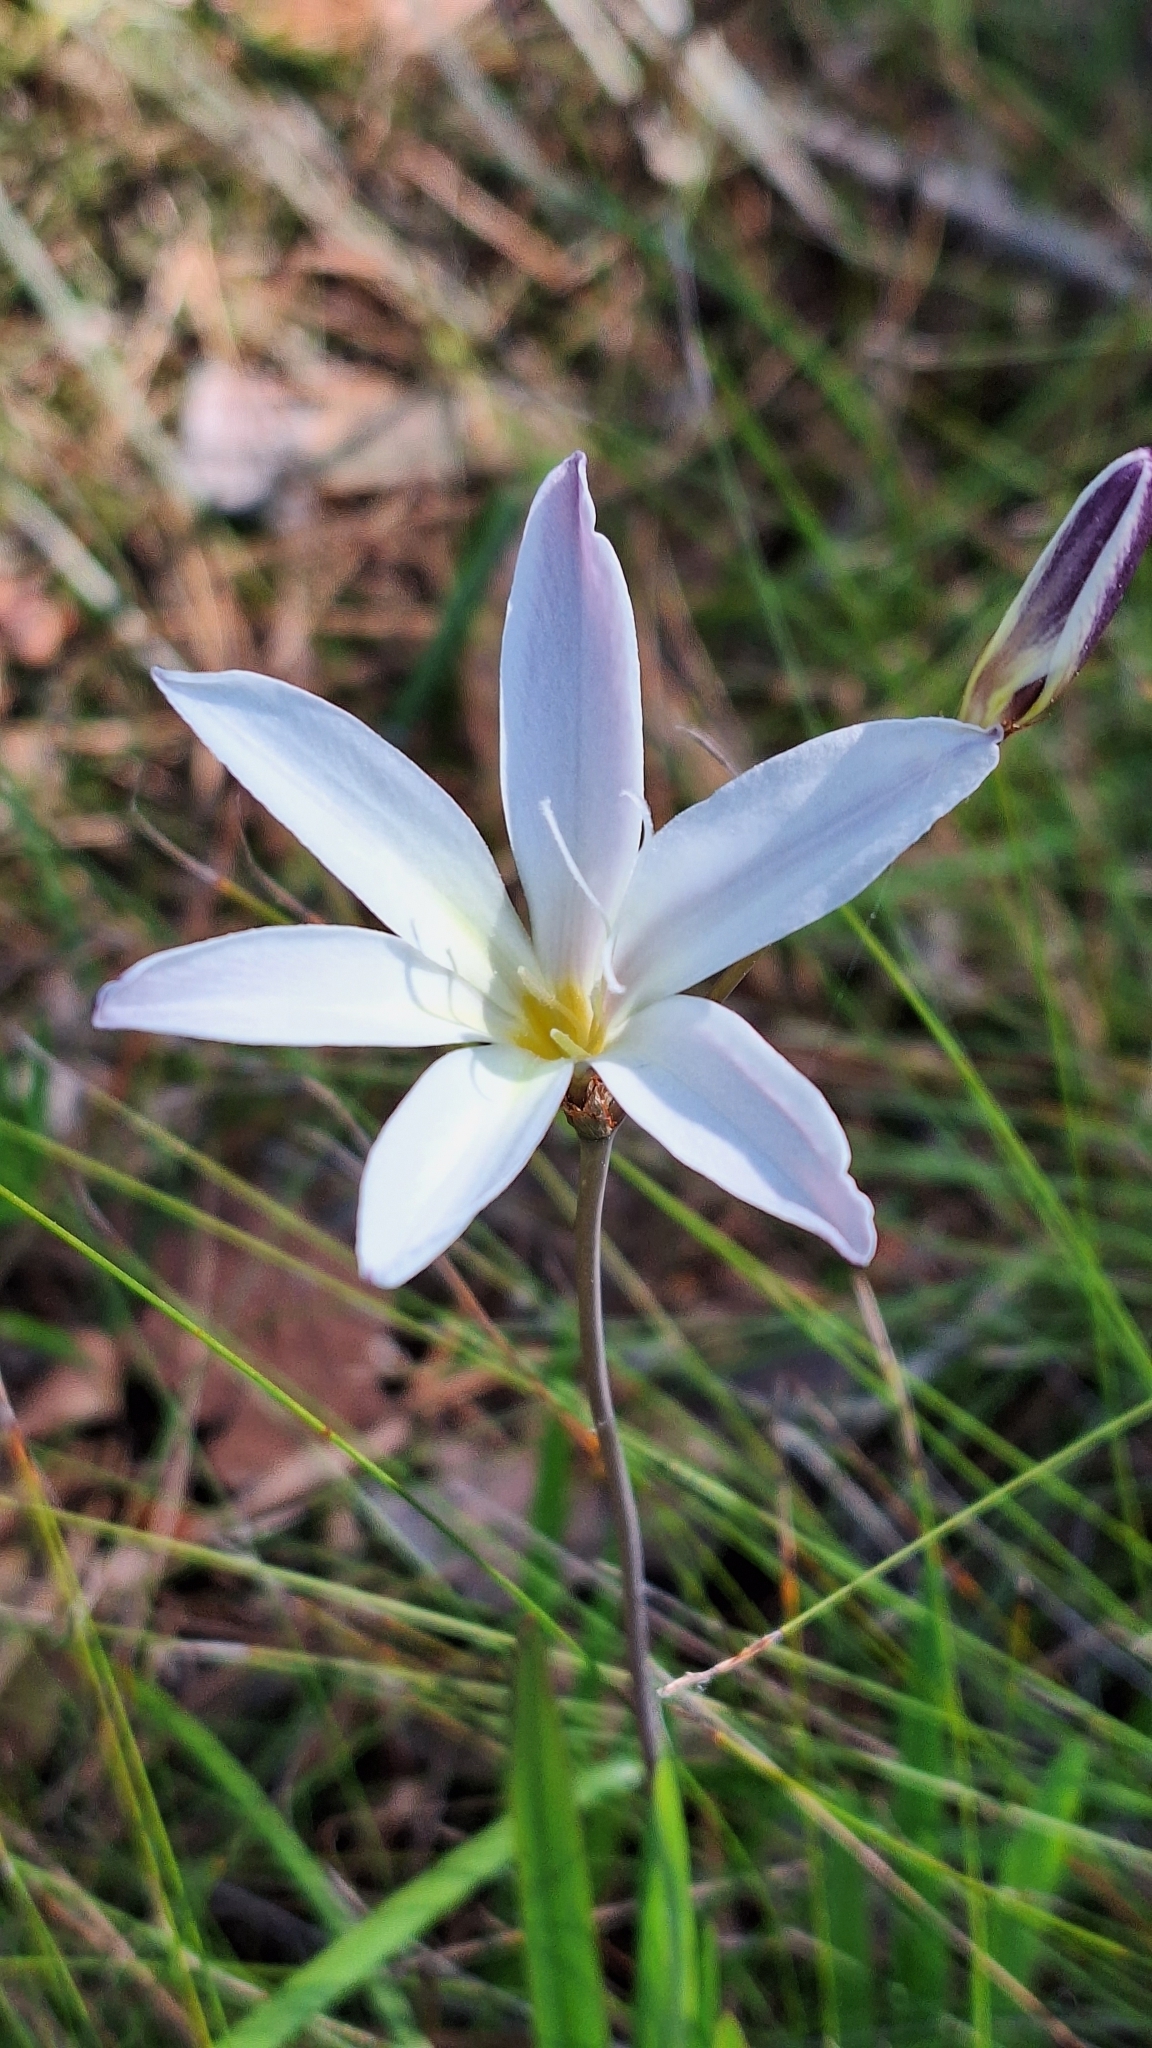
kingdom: Plantae
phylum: Tracheophyta
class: Liliopsida
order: Asparagales
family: Iridaceae
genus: Sparaxis
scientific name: Sparaxis bulbifera
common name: Harlequin-flower
